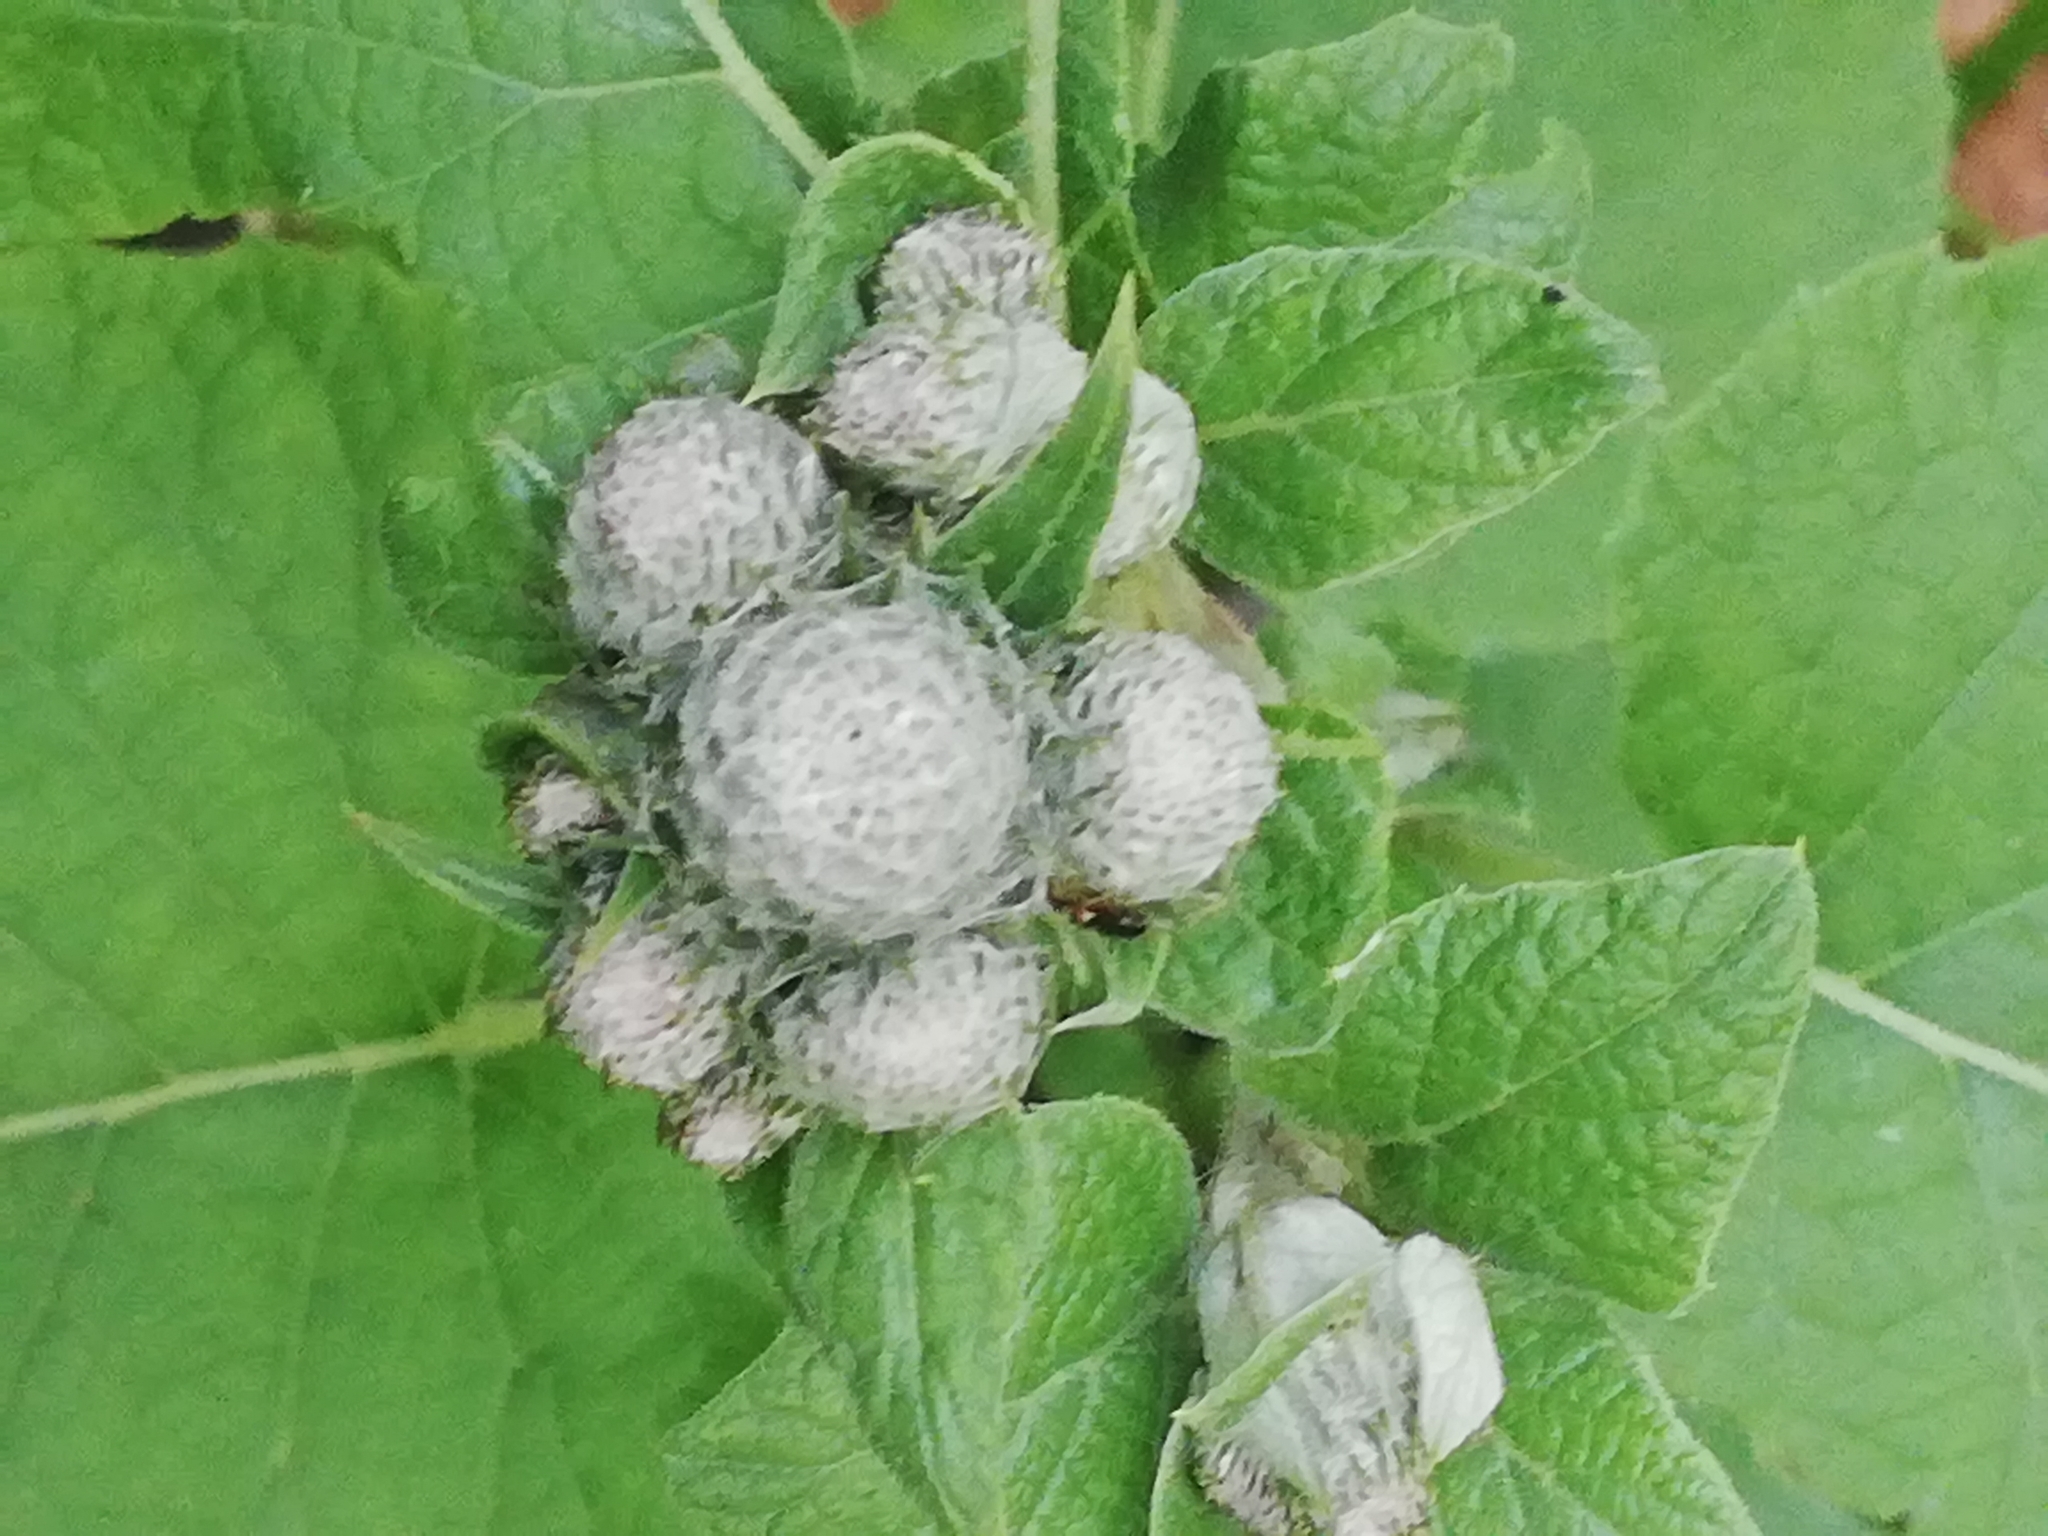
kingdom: Plantae
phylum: Tracheophyta
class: Magnoliopsida
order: Asterales
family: Asteraceae
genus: Arctium
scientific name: Arctium tomentosum
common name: Woolly burdock
